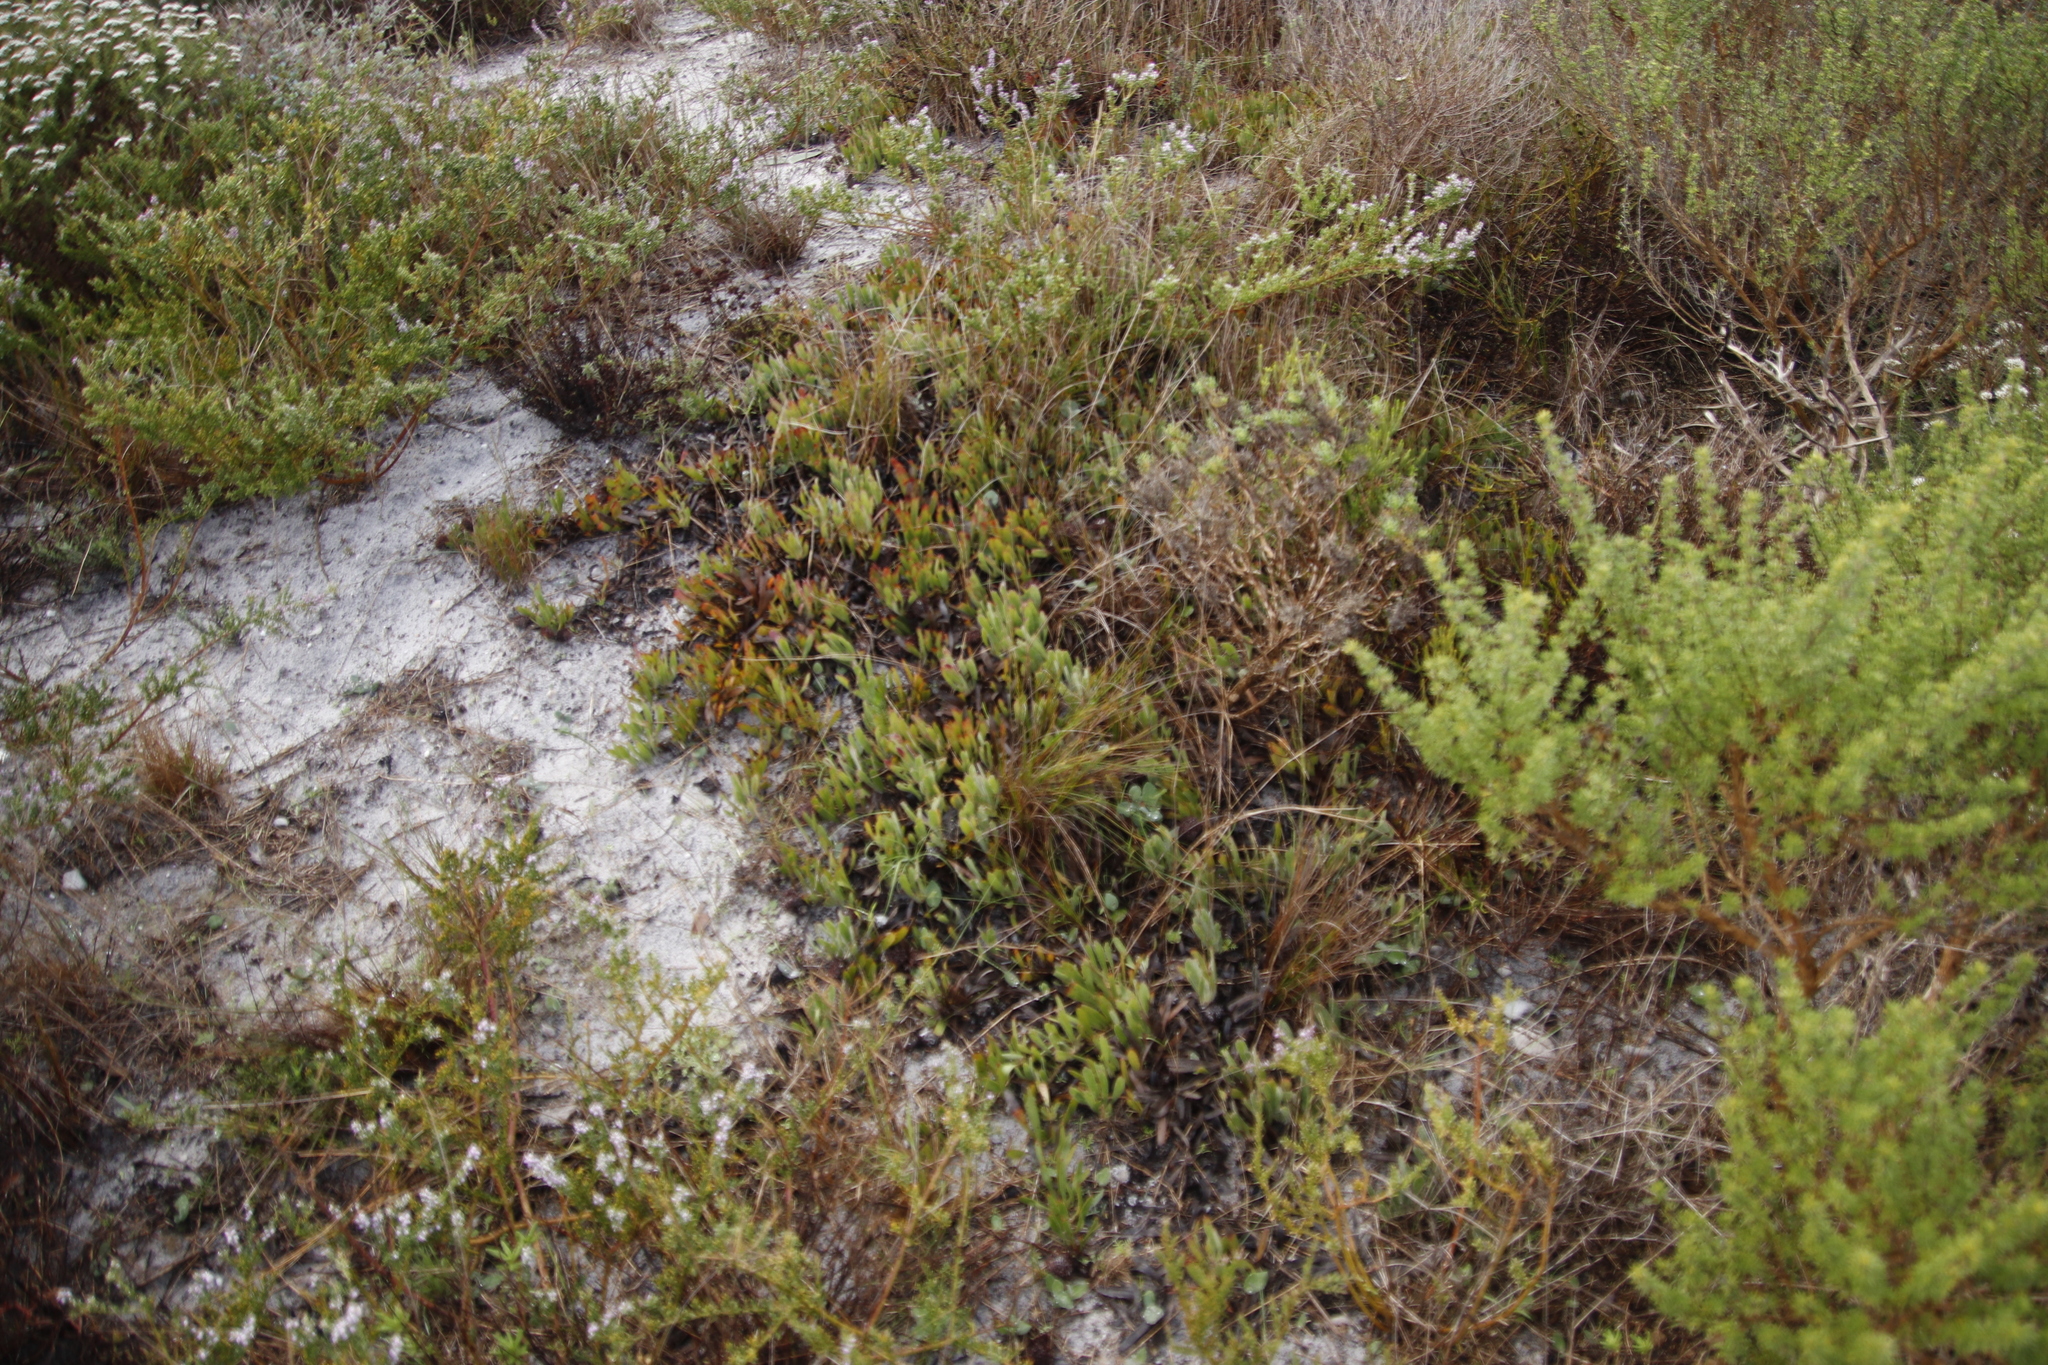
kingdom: Plantae
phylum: Tracheophyta
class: Magnoliopsida
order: Proteales
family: Proteaceae
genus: Leucospermum
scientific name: Leucospermum hypophyllocarpodendron
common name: Snakestem pincushion
